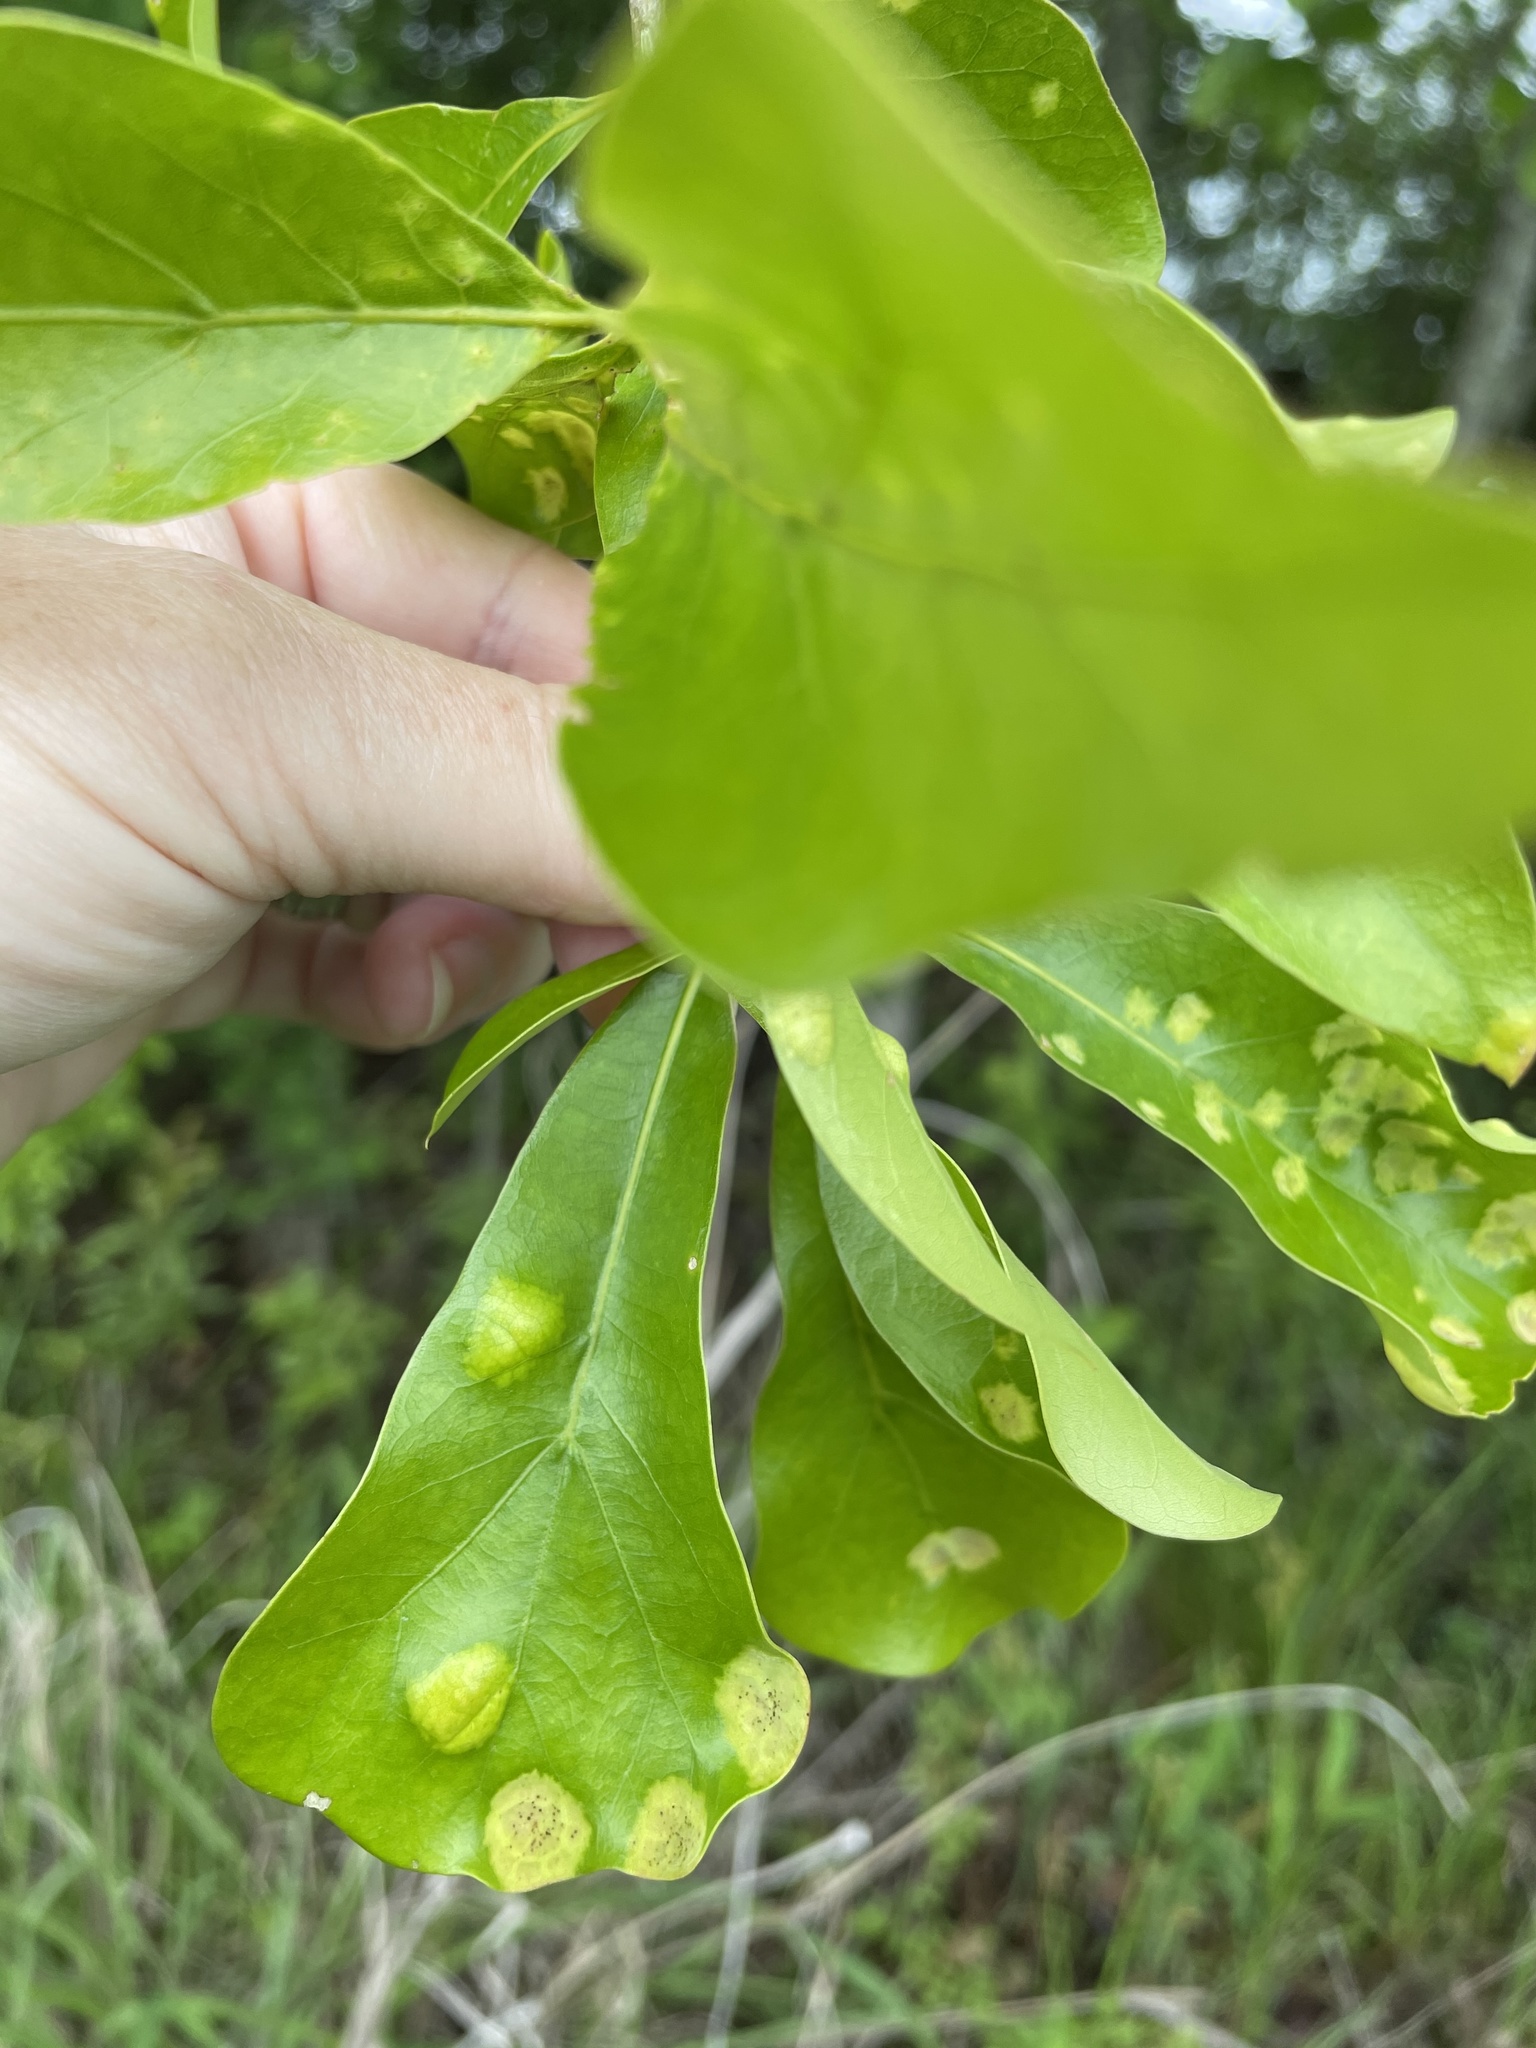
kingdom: Fungi
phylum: Ascomycota
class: Taphrinomycetes
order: Taphrinales
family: Taphrinaceae
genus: Taphrina
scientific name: Taphrina caerulescens
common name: Oak leaf blister
